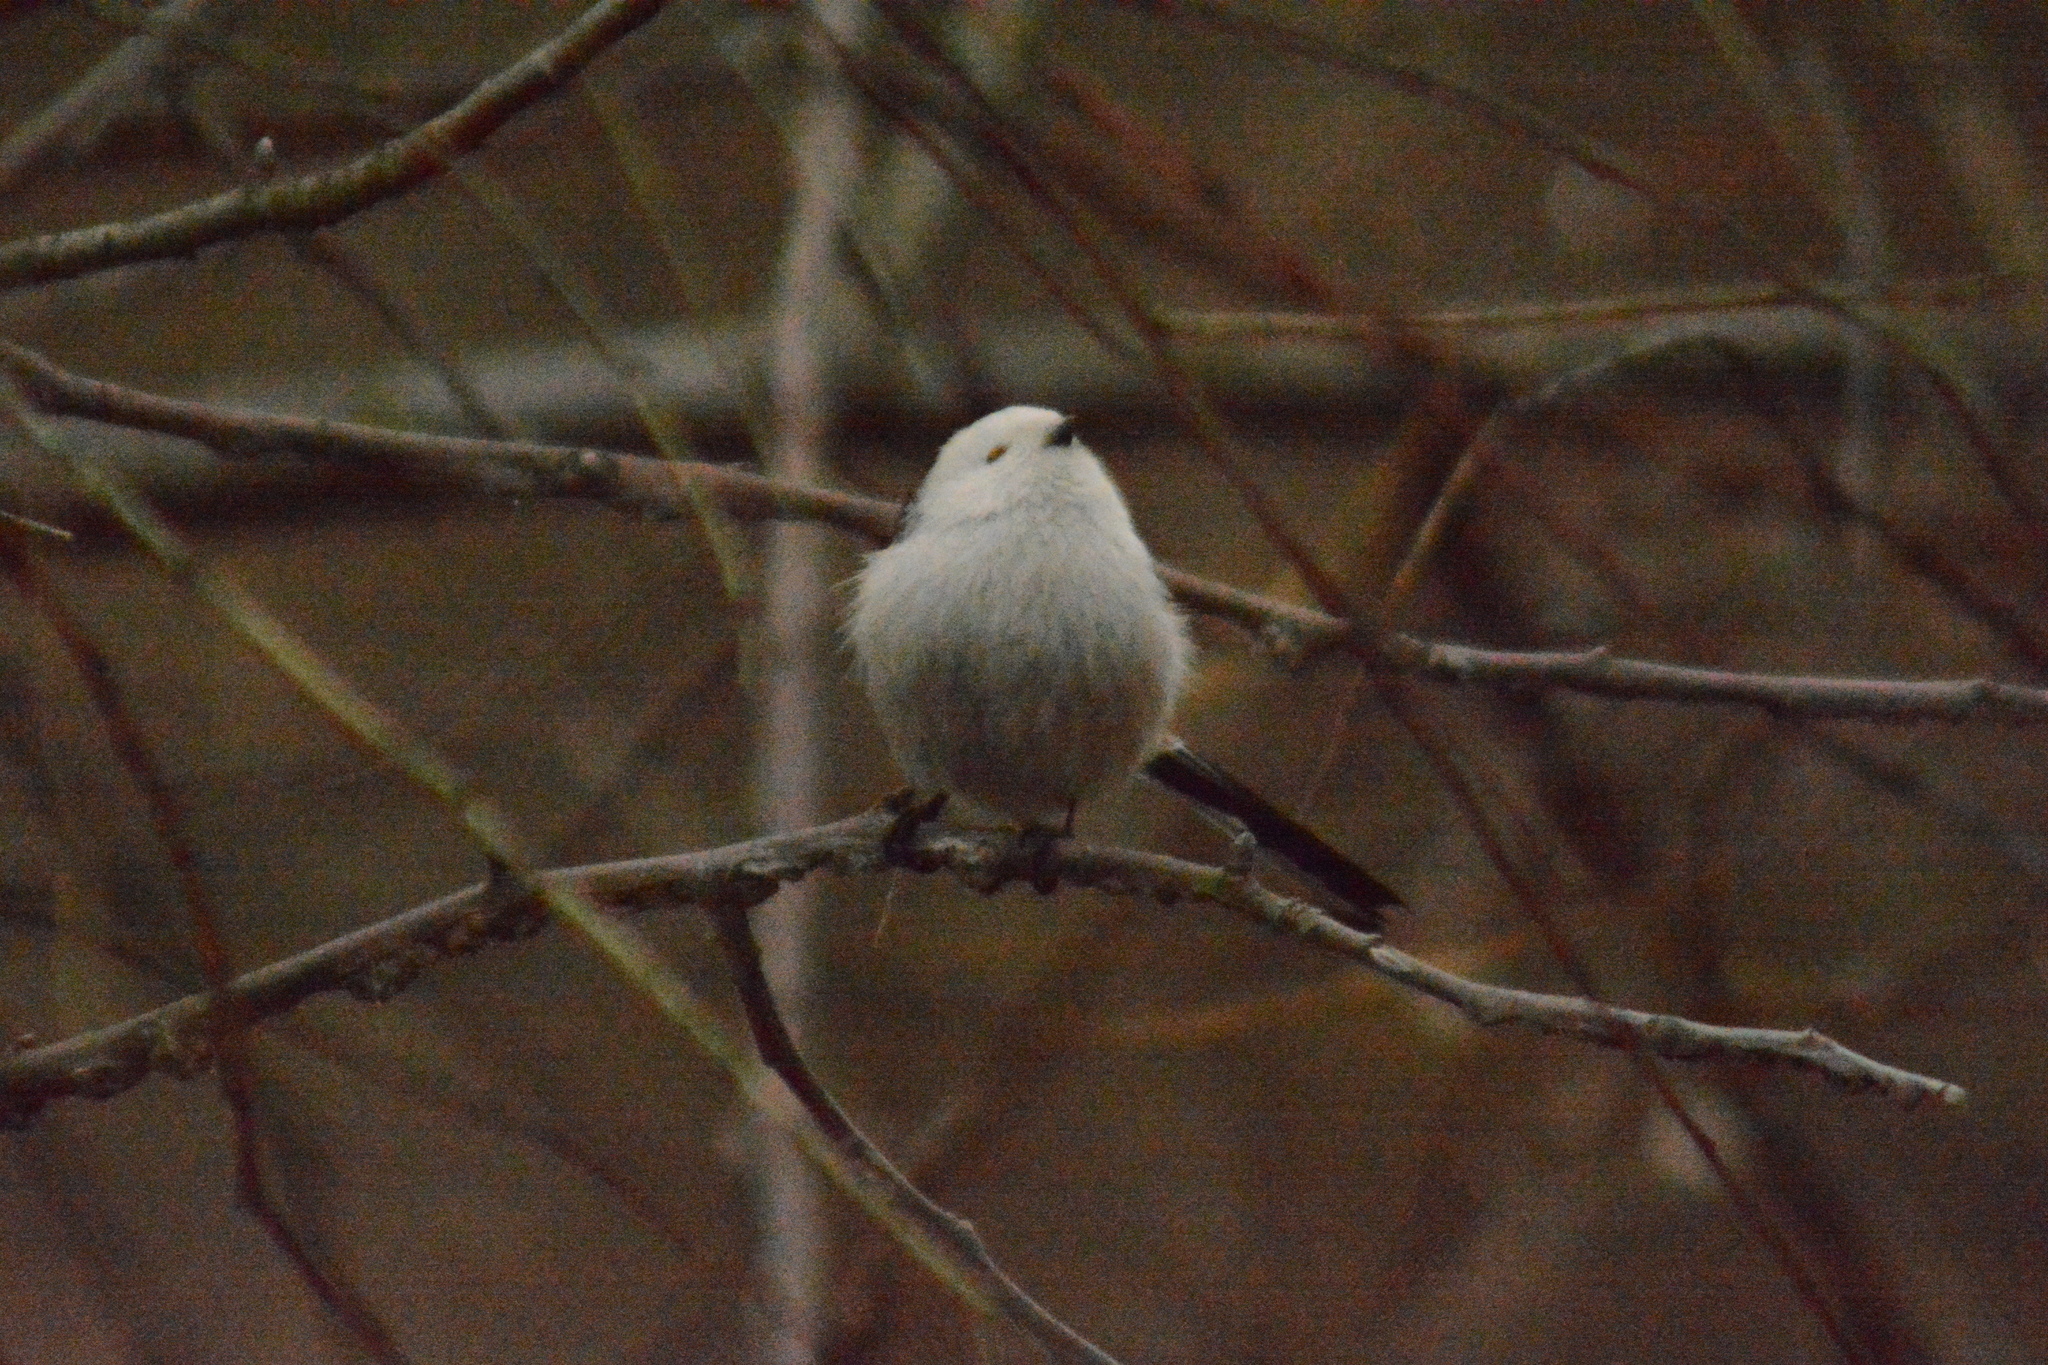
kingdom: Animalia
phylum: Chordata
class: Aves
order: Passeriformes
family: Aegithalidae
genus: Aegithalos
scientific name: Aegithalos caudatus
